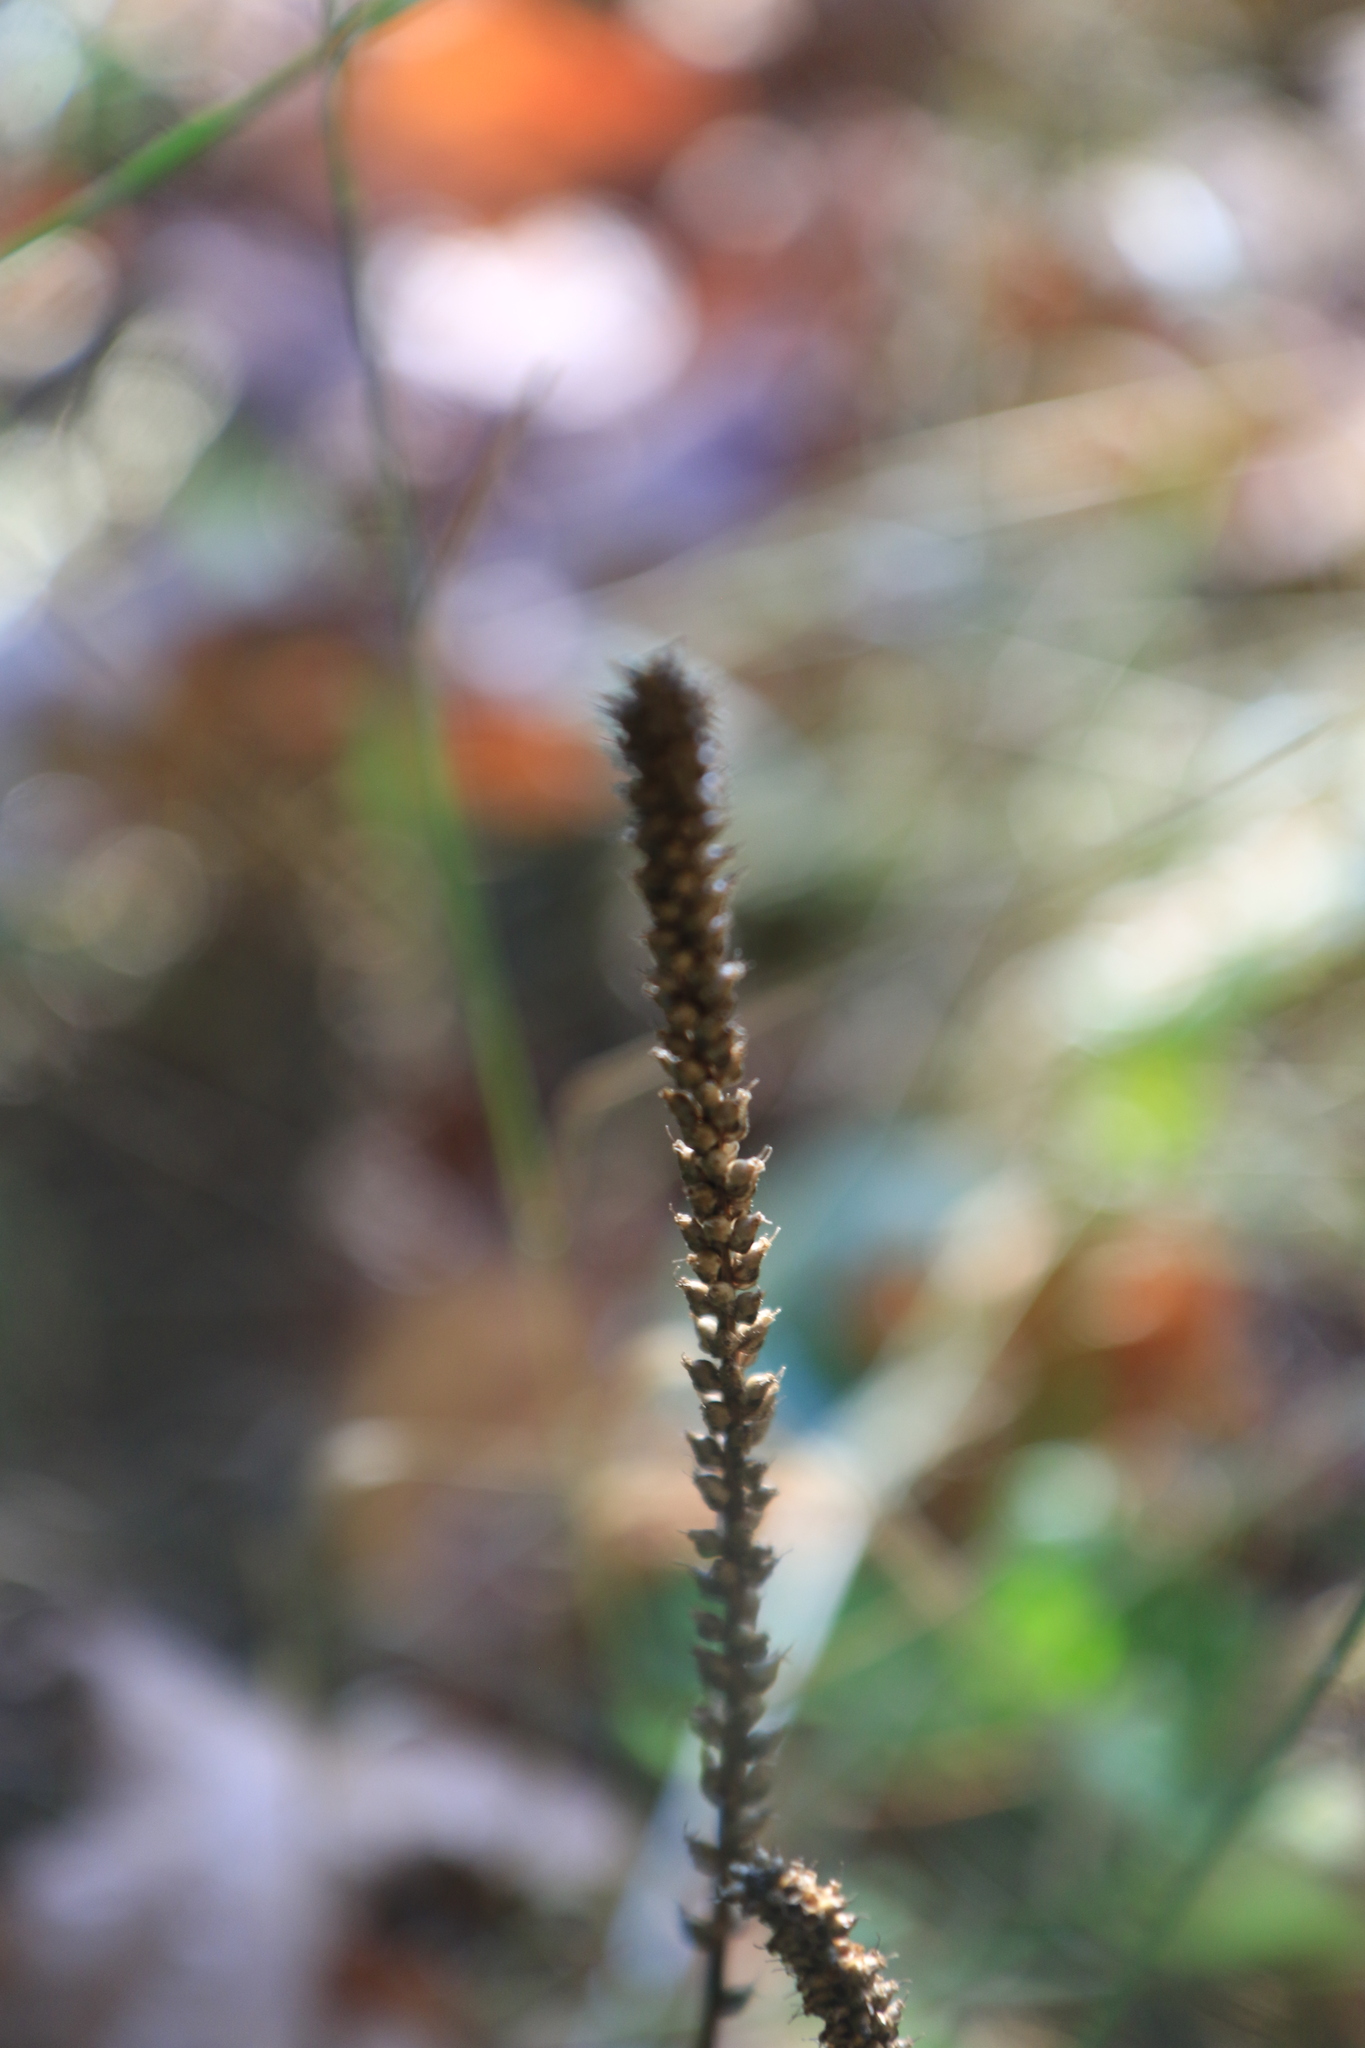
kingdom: Plantae
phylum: Tracheophyta
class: Magnoliopsida
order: Lamiales
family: Plantaginaceae
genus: Plantago
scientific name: Plantago major
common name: Common plantain
